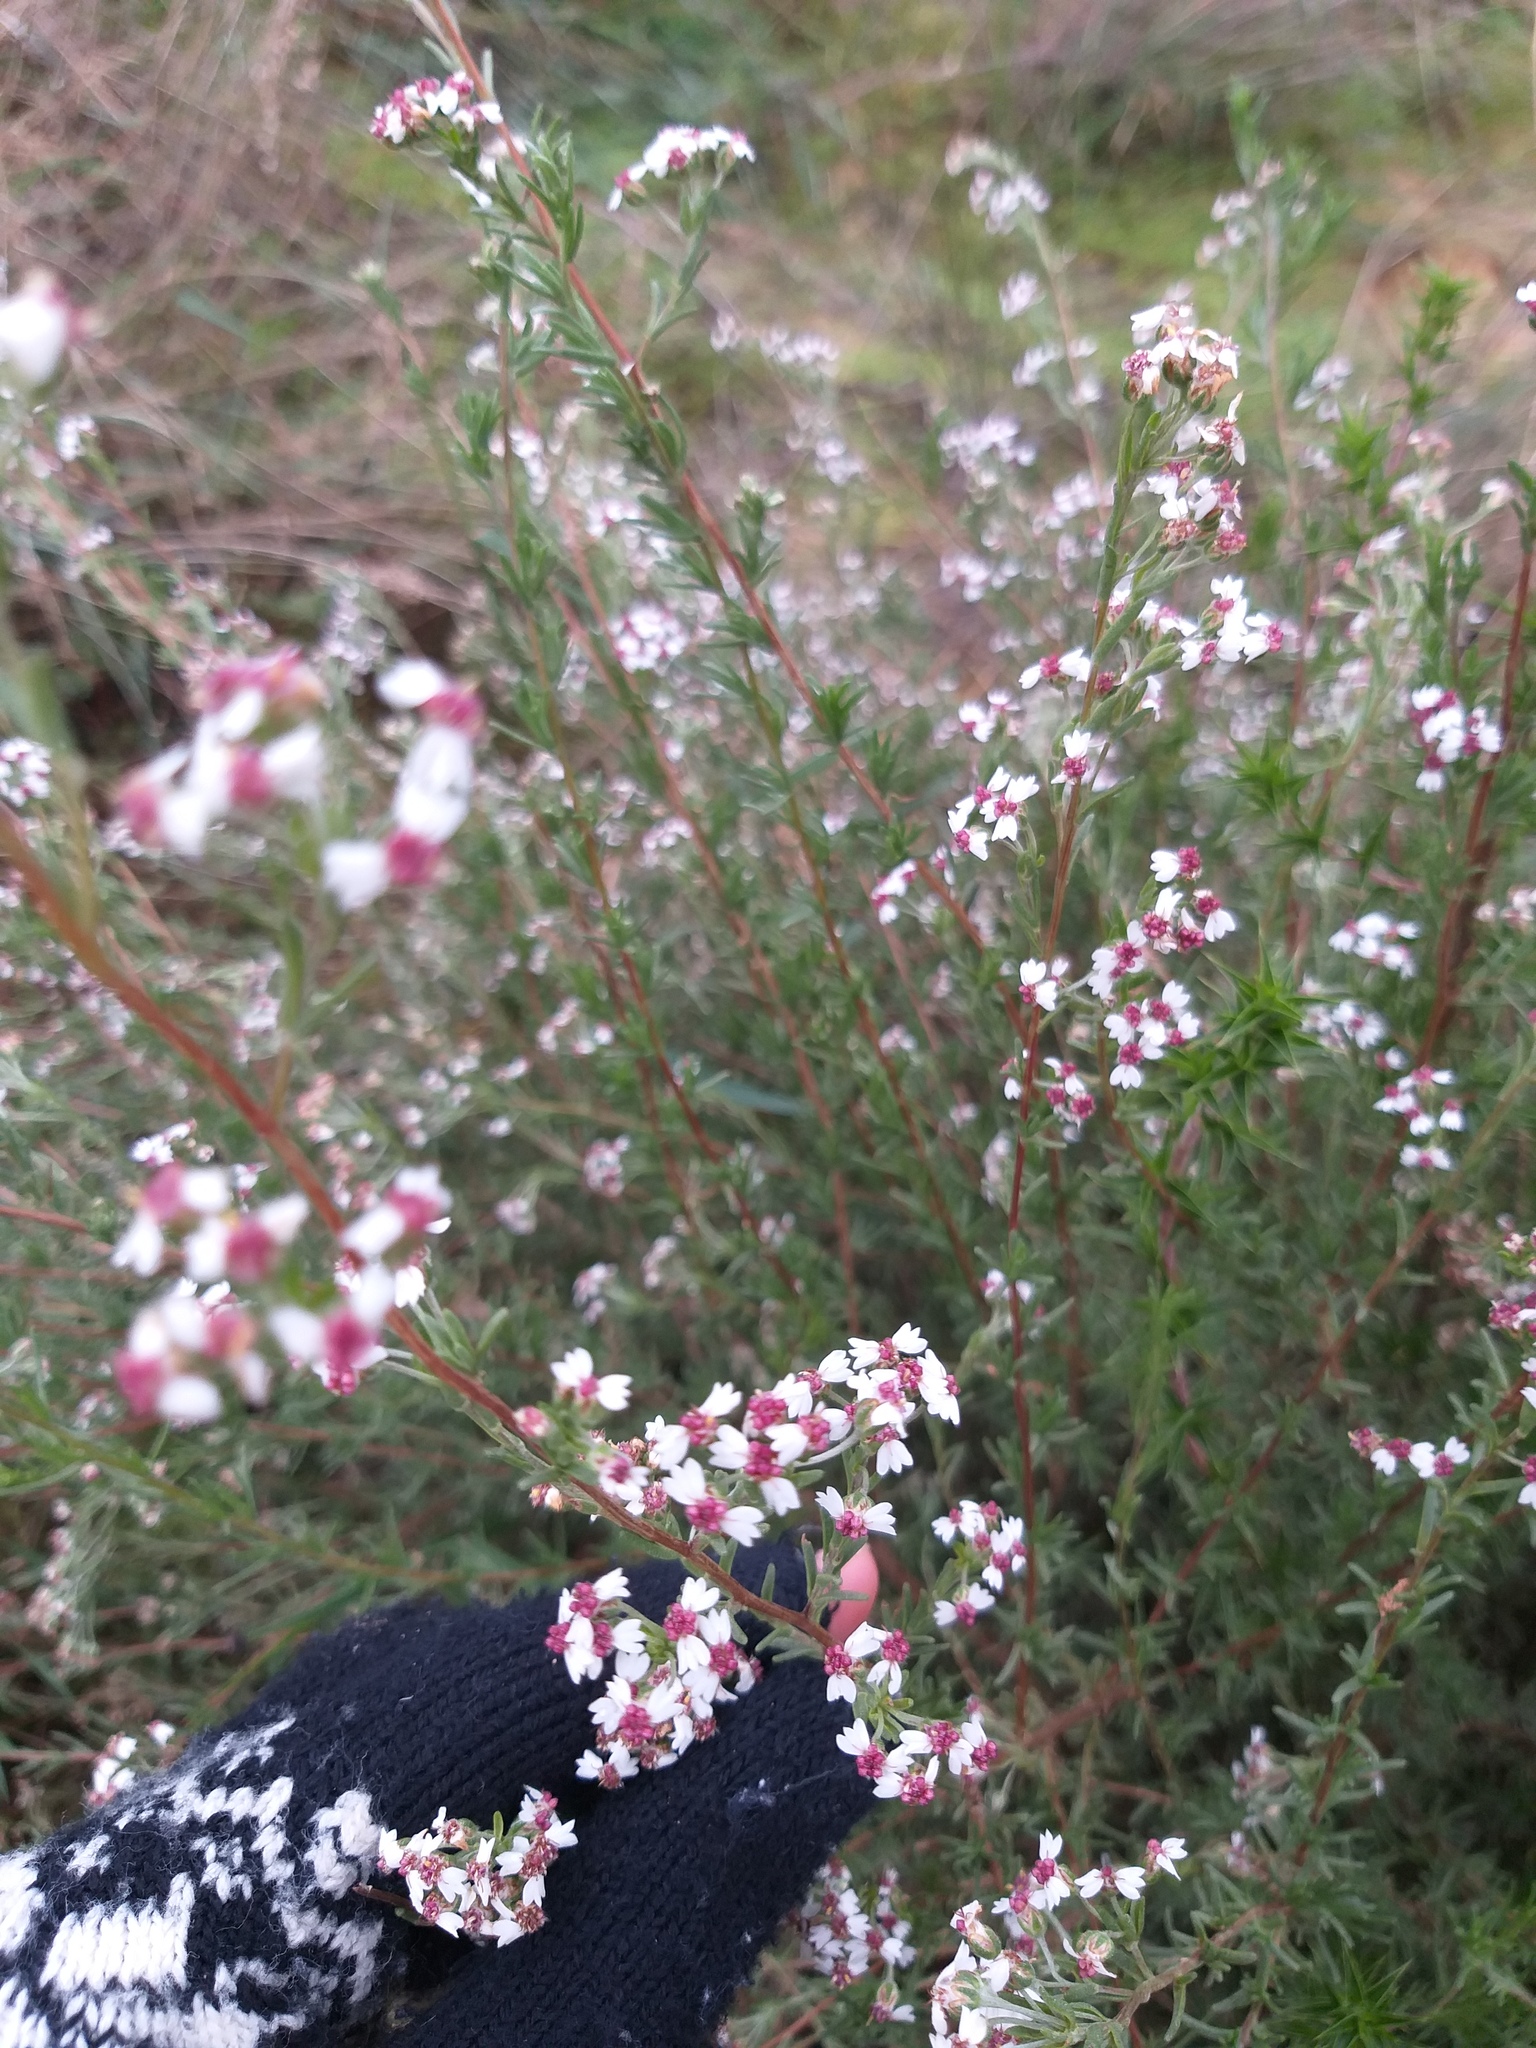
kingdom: Plantae
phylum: Tracheophyta
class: Magnoliopsida
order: Asterales
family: Asteraceae
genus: Eriocephalus
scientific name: Eriocephalus africanus
